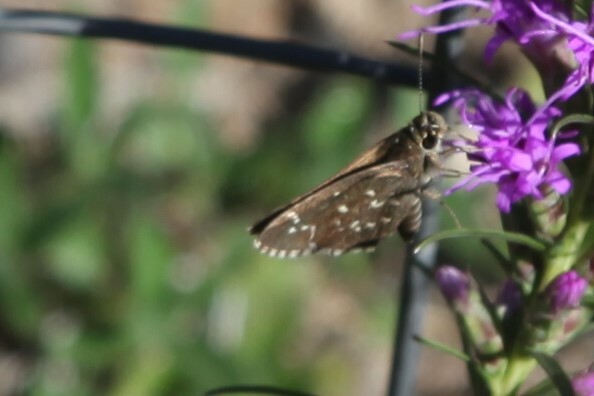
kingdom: Animalia
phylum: Arthropoda
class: Insecta
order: Lepidoptera
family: Hesperiidae
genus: Mastor
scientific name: Mastor celia
